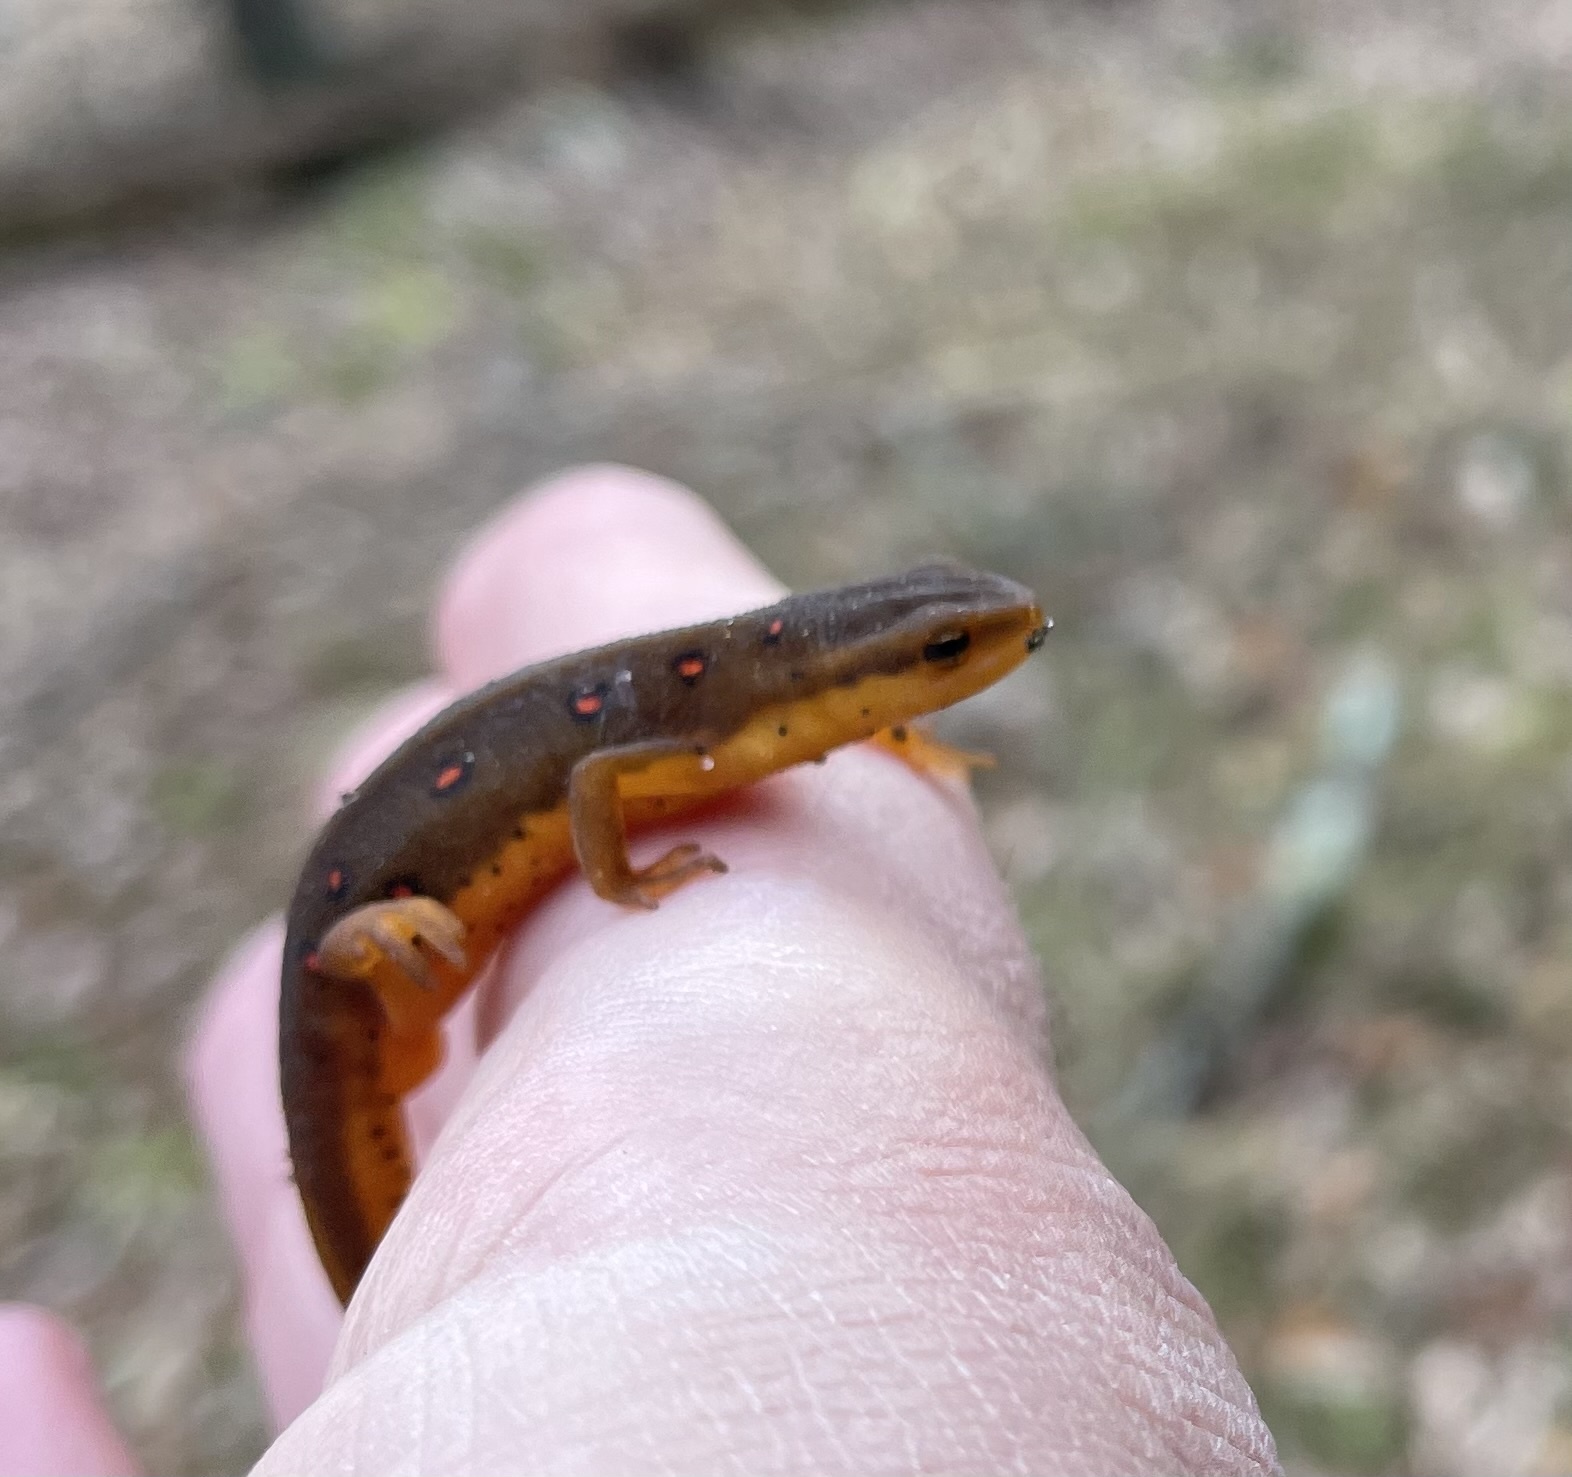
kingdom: Animalia
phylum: Chordata
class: Amphibia
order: Caudata
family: Salamandridae
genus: Notophthalmus
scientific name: Notophthalmus viridescens
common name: Eastern newt
